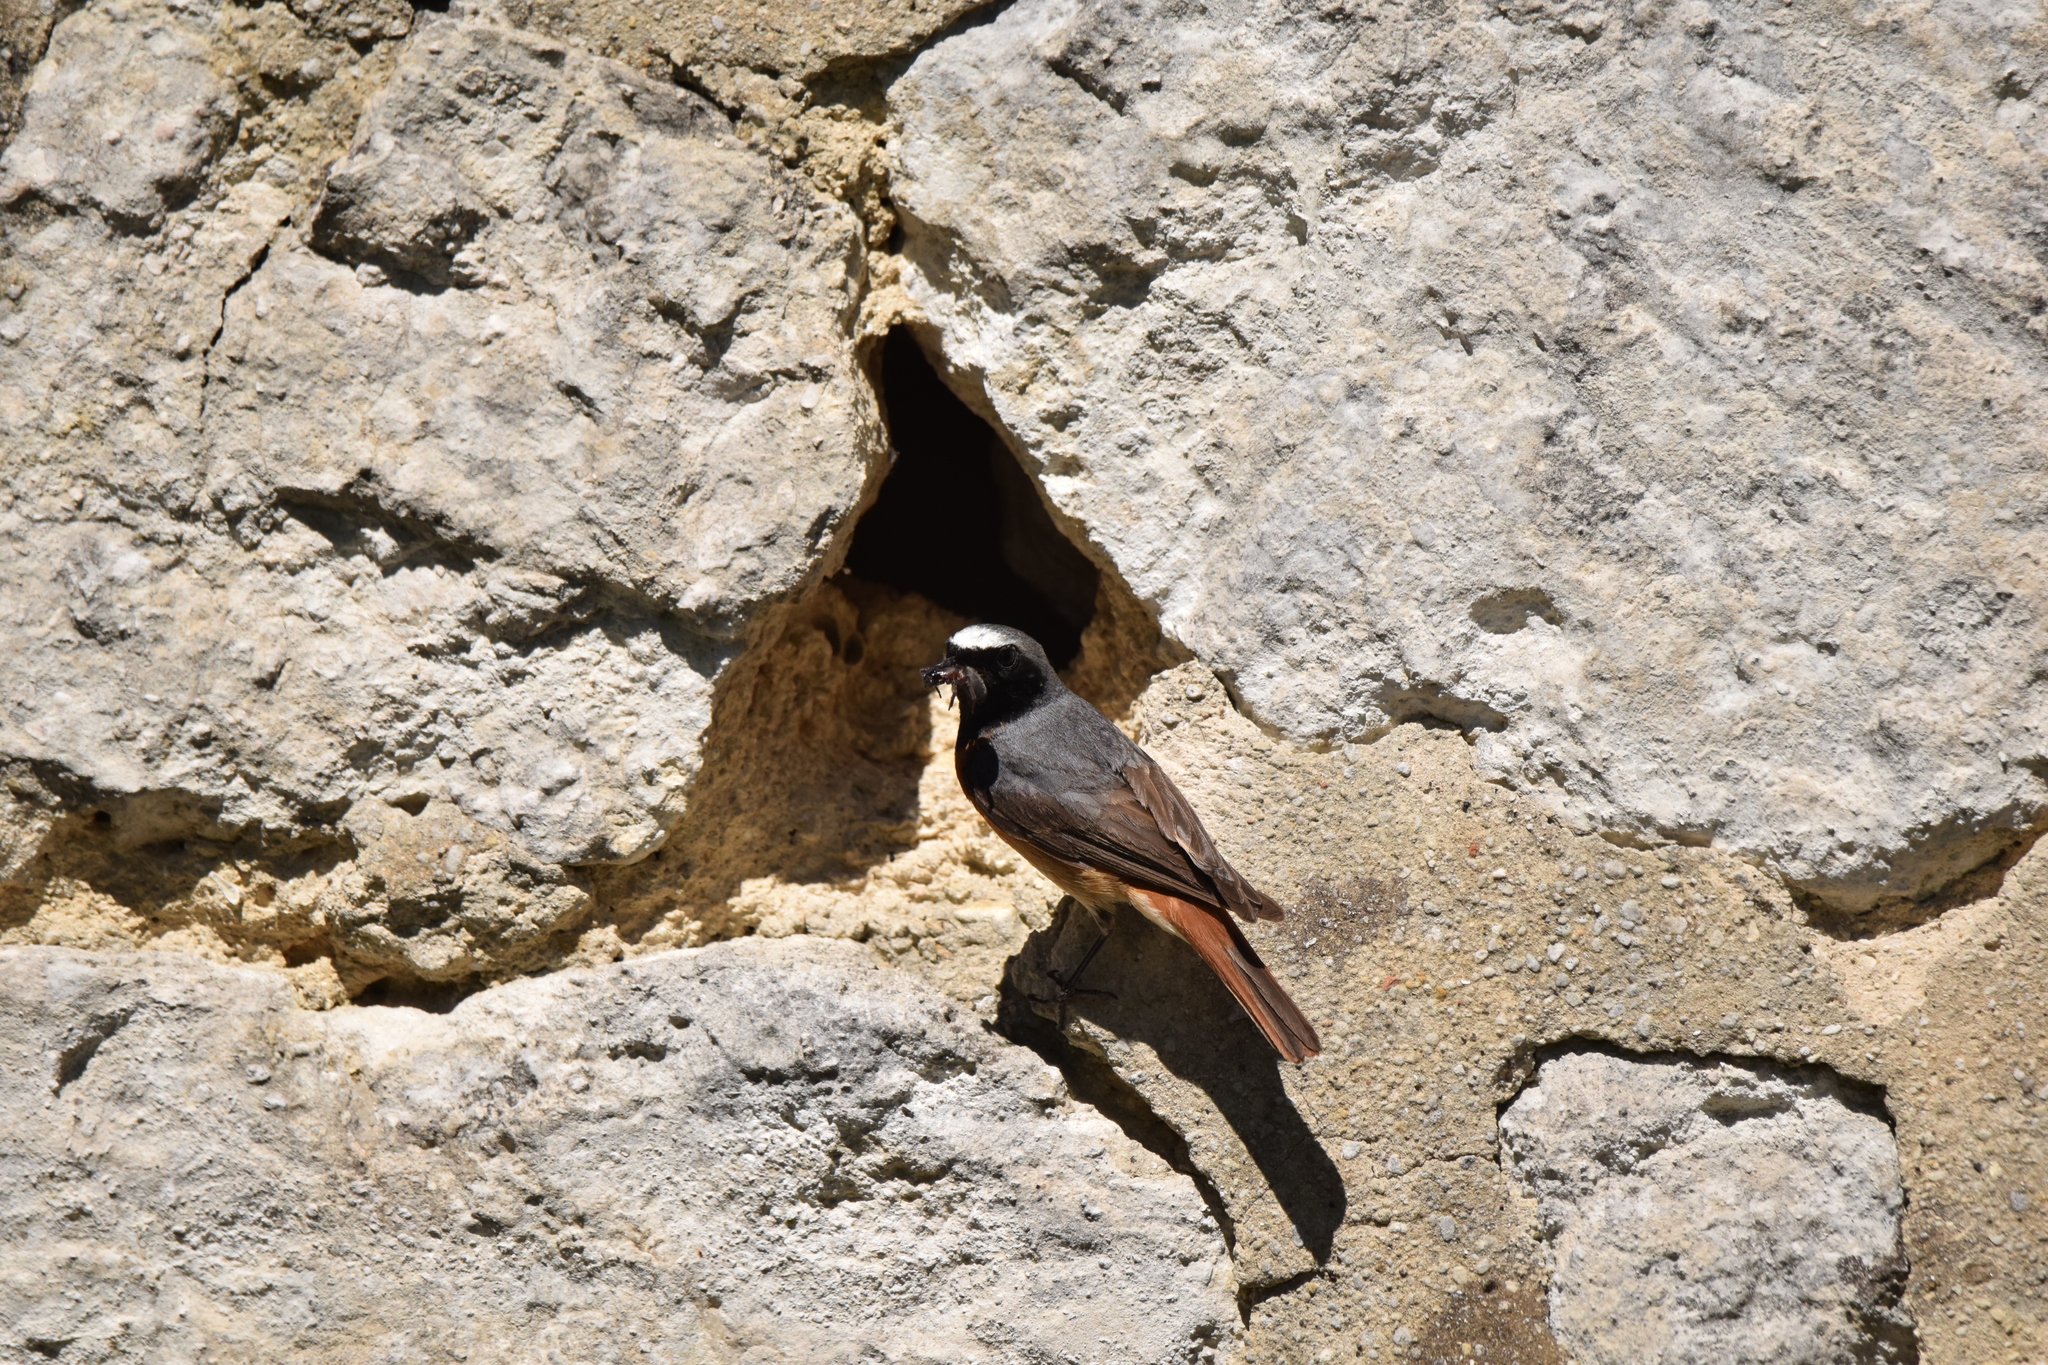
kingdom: Animalia
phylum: Chordata
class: Aves
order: Passeriformes
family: Muscicapidae
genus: Phoenicurus
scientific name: Phoenicurus phoenicurus
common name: Common redstart
